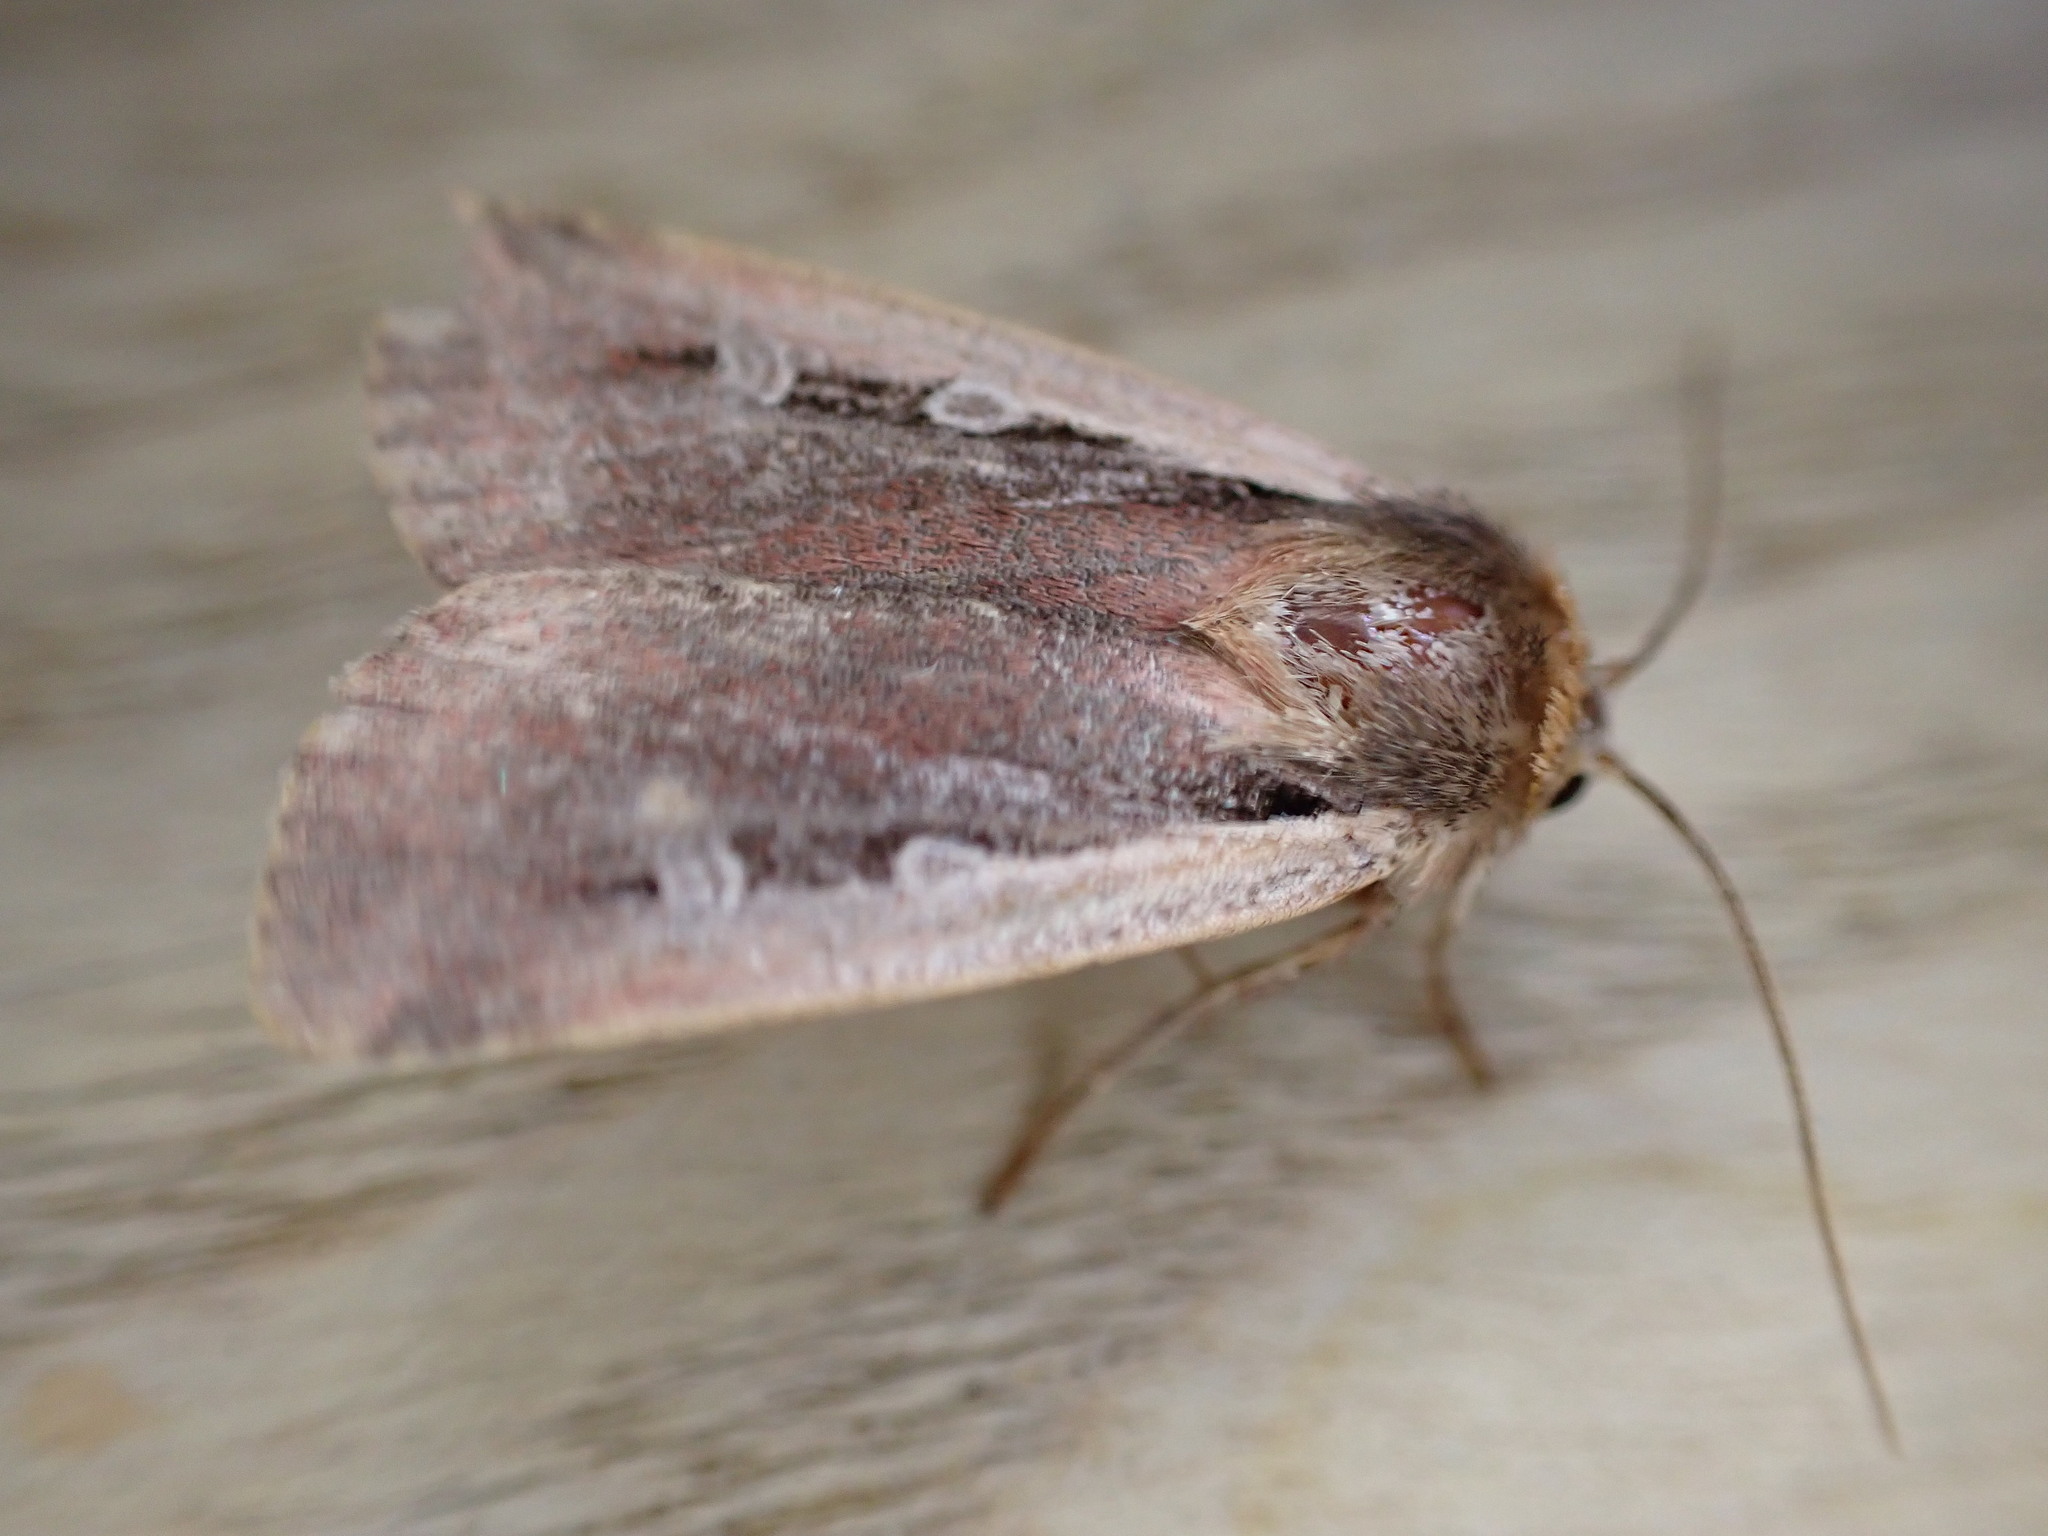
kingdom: Animalia
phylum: Arthropoda
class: Insecta
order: Lepidoptera
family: Noctuidae
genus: Ochropleura
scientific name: Ochropleura plecta
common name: Flame shoulder
